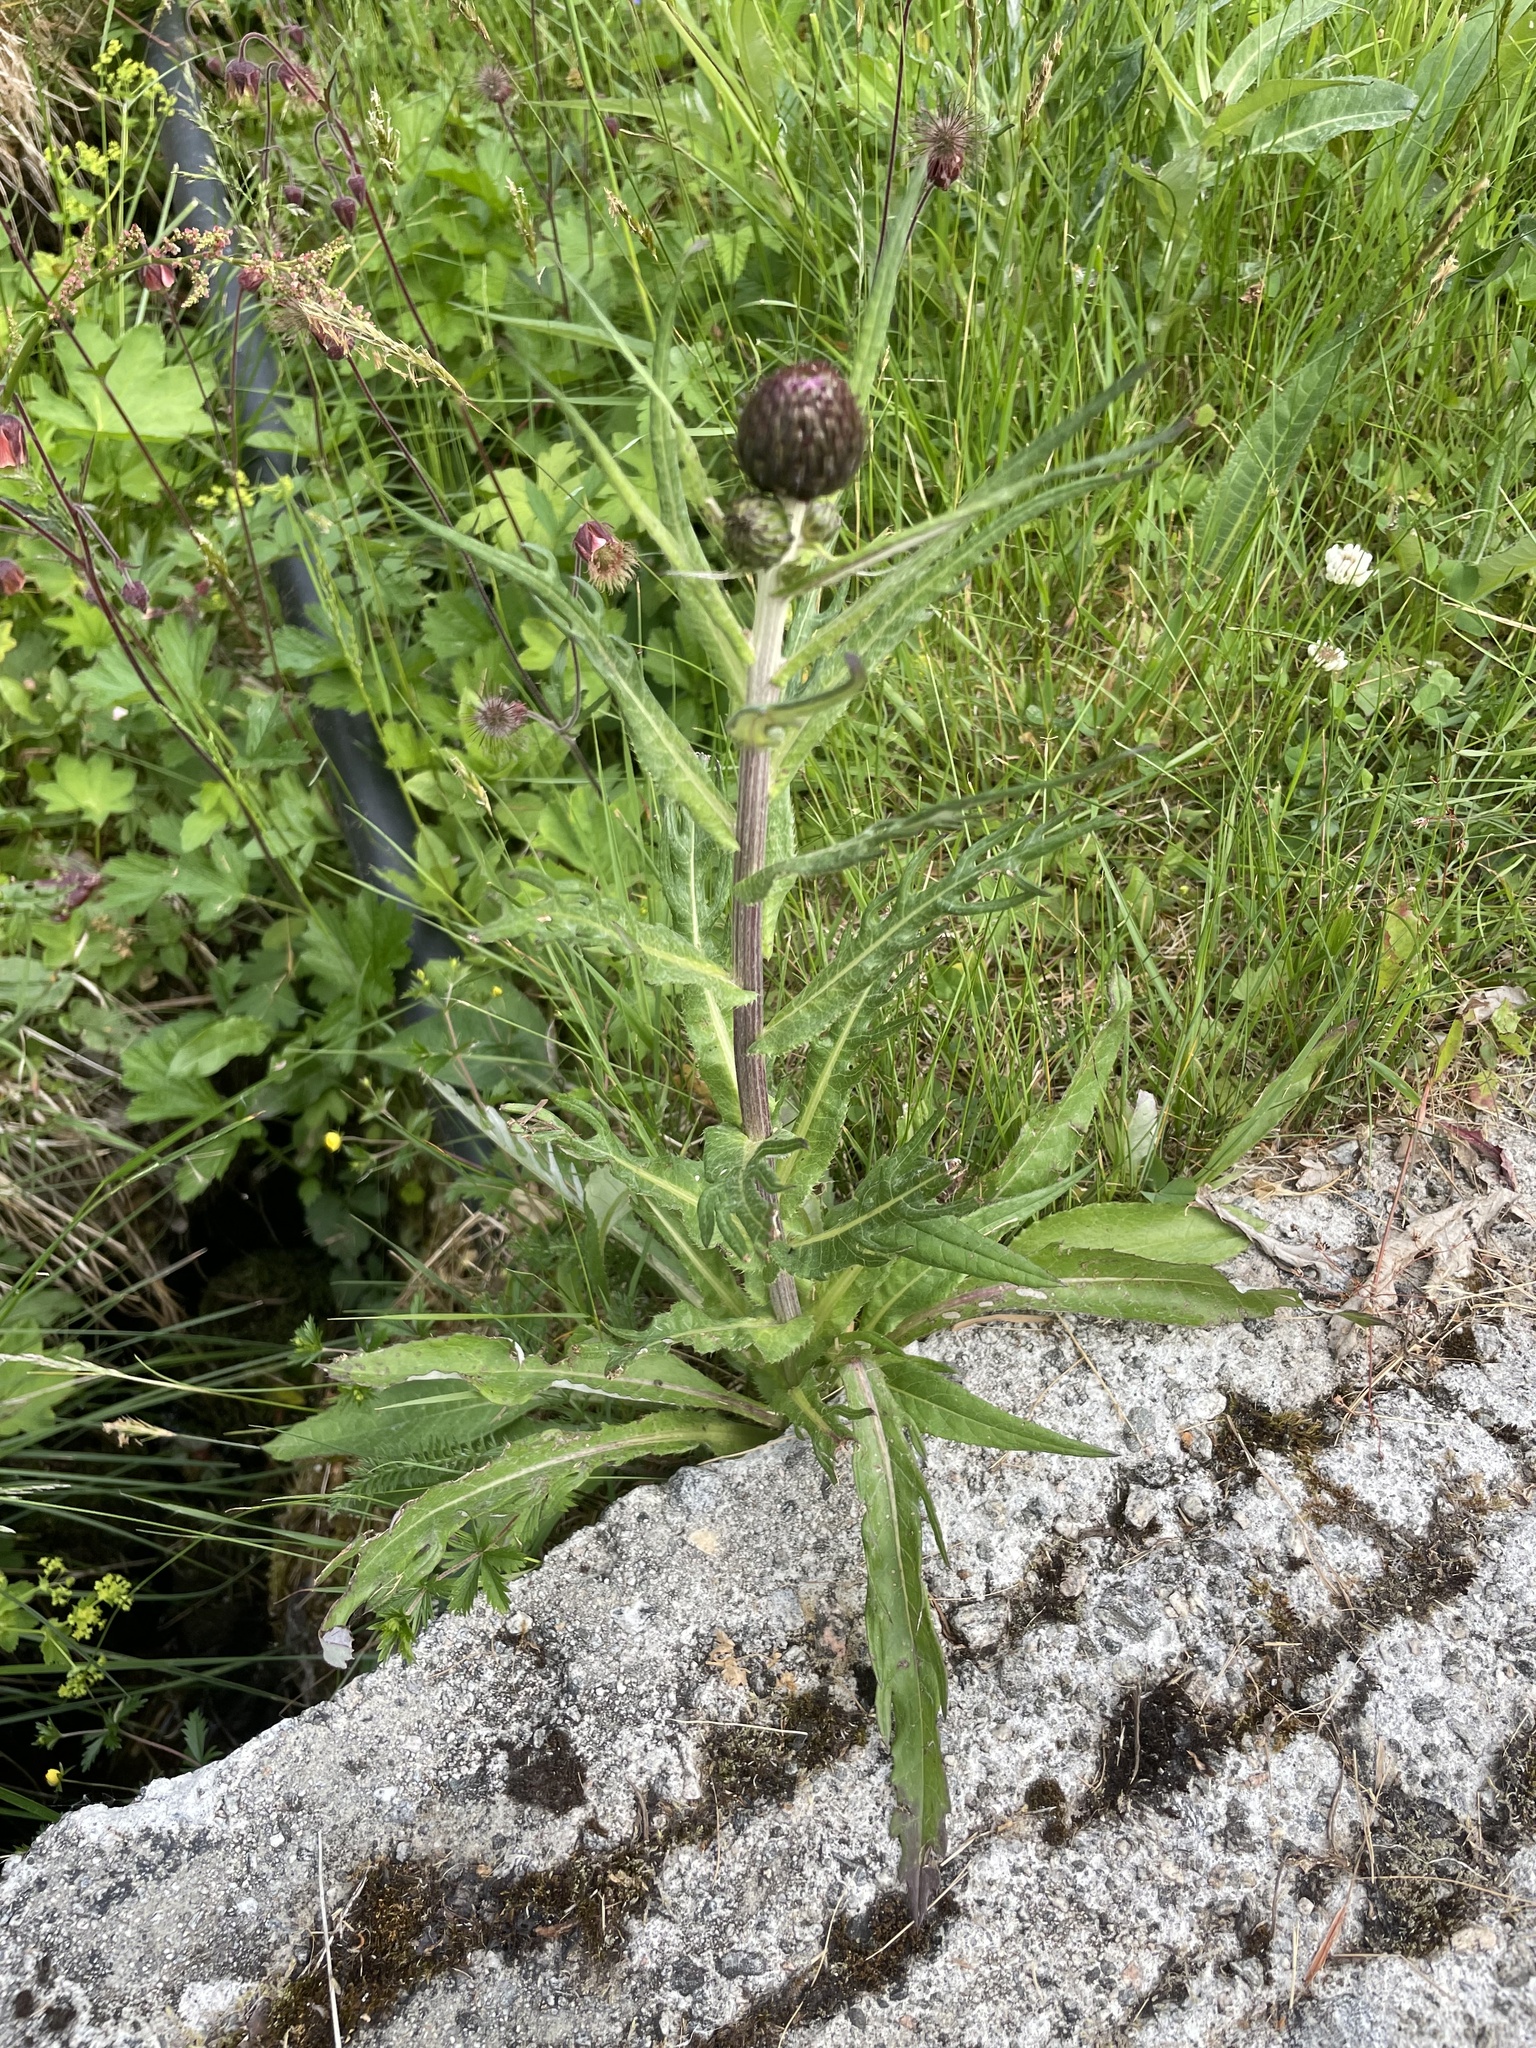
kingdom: Plantae
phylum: Tracheophyta
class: Magnoliopsida
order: Asterales
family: Asteraceae
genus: Cirsium
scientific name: Cirsium heterophyllum
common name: Melancholy thistle
